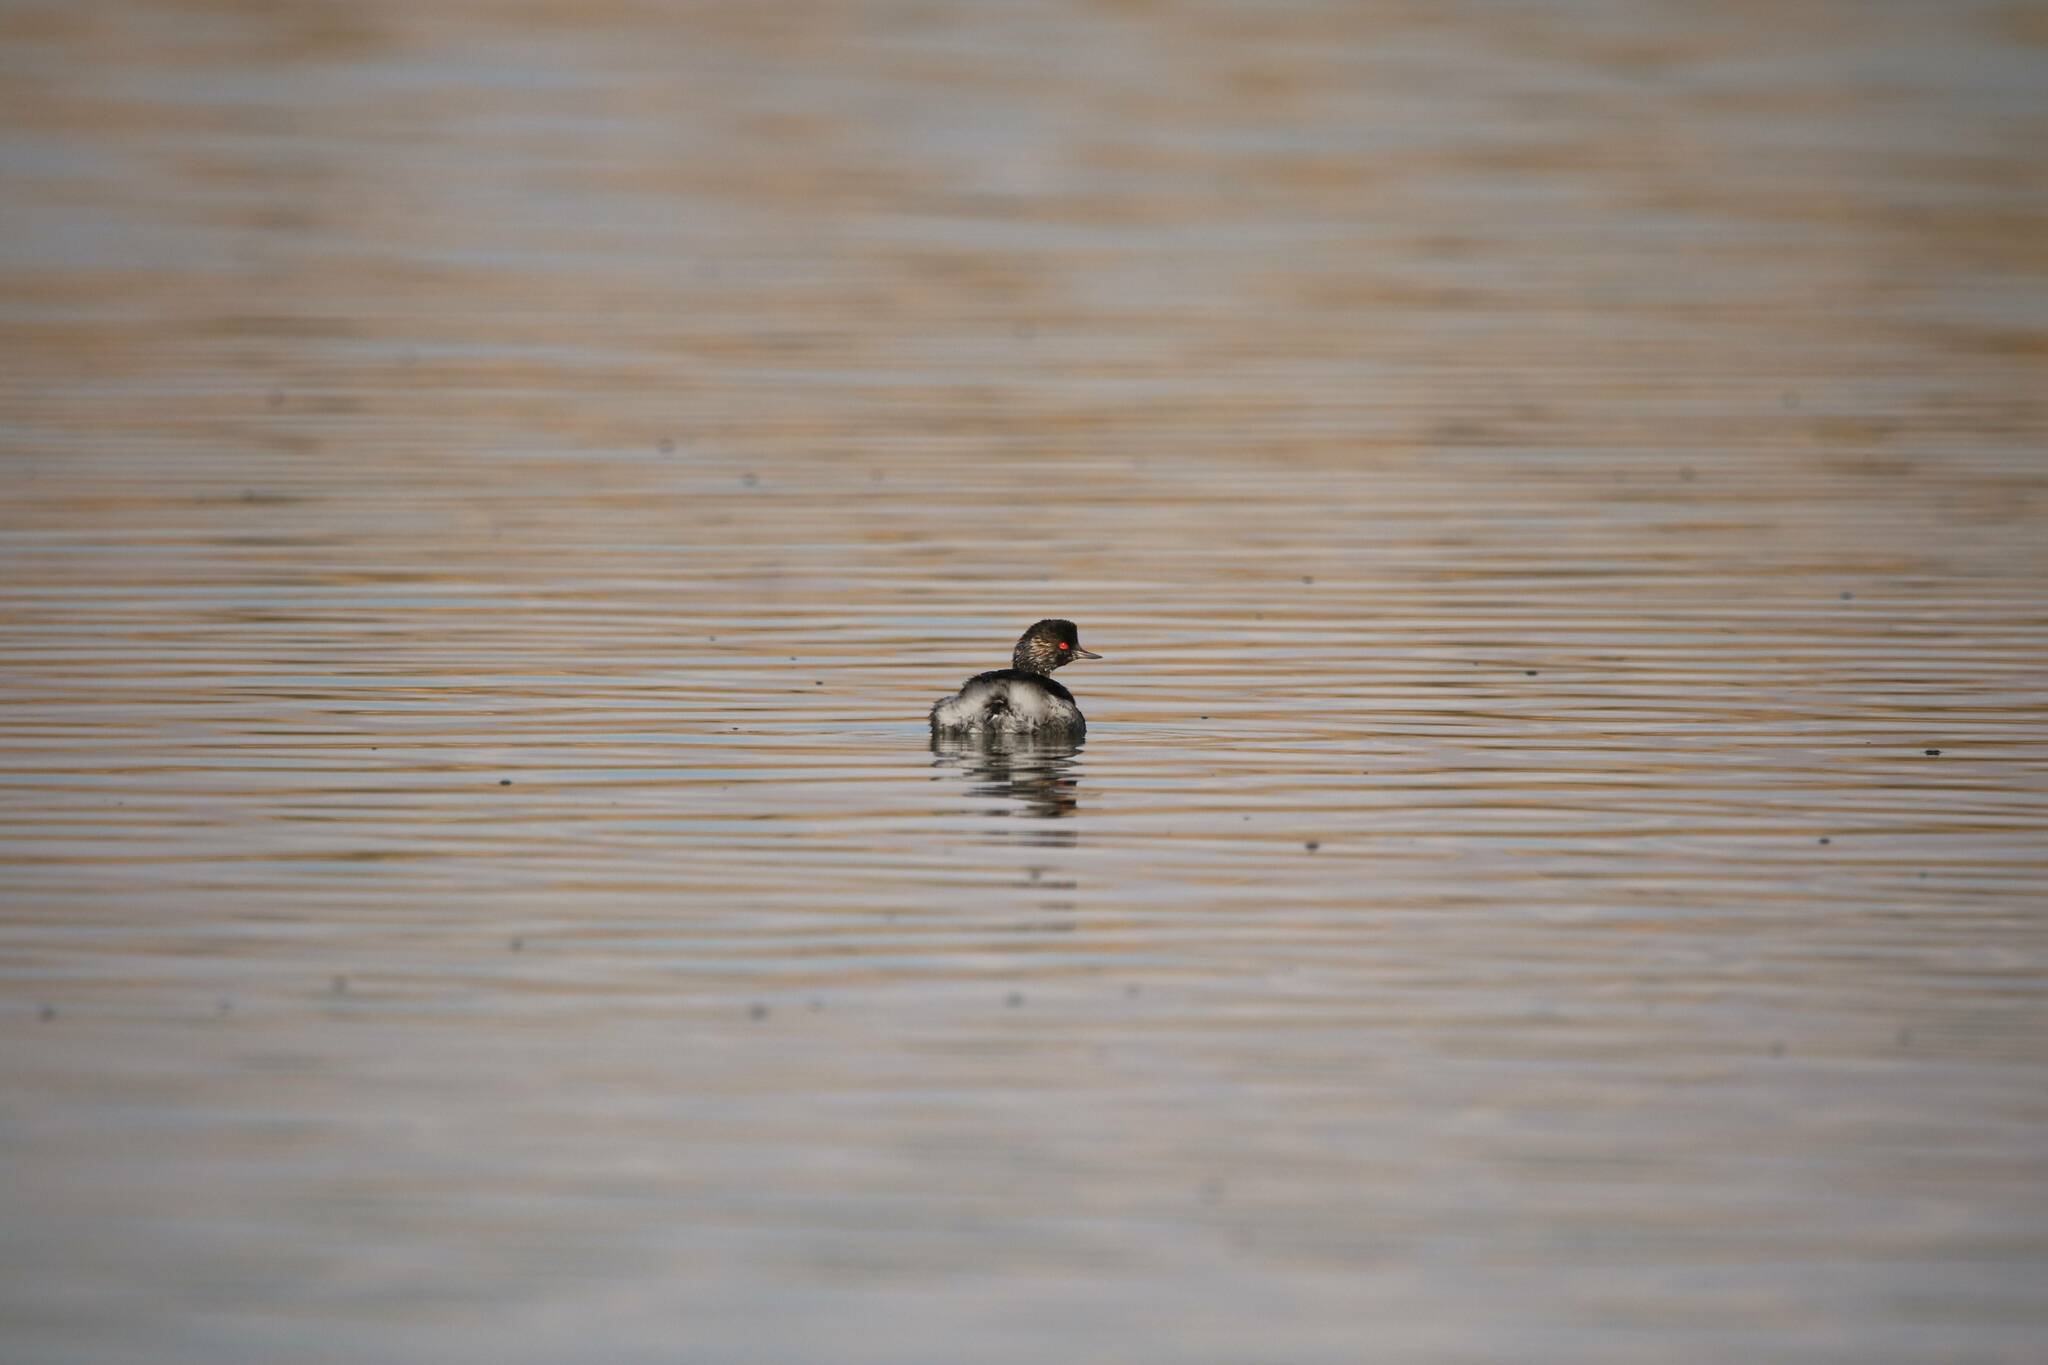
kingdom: Animalia
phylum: Chordata
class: Aves
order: Podicipediformes
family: Podicipedidae
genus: Podiceps
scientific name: Podiceps nigricollis
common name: Black-necked grebe
